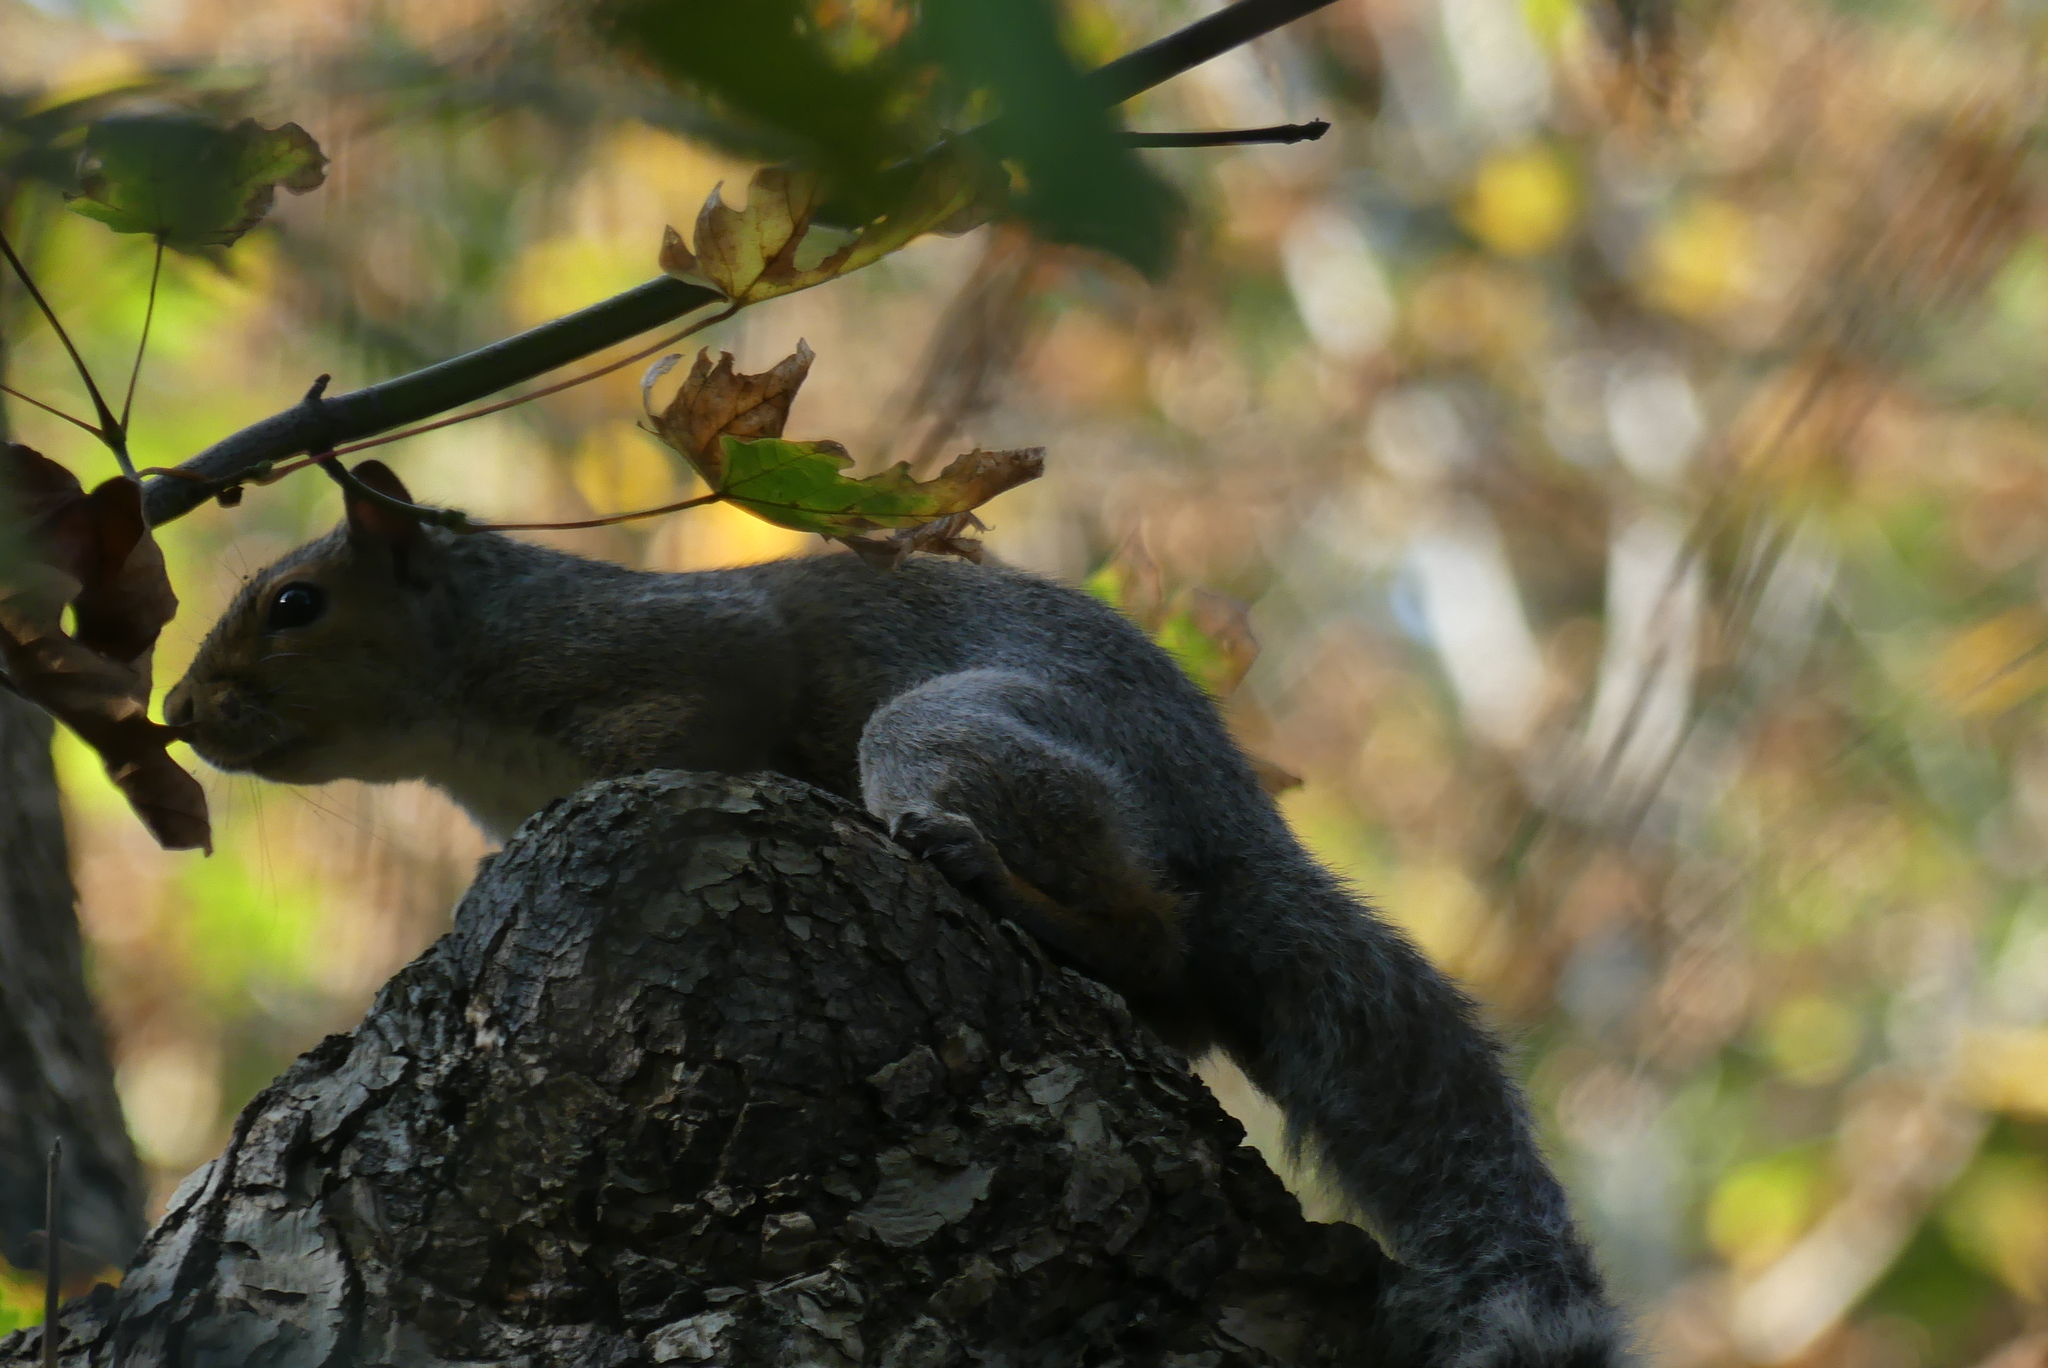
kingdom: Animalia
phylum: Chordata
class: Mammalia
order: Rodentia
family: Sciuridae
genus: Sciurus
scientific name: Sciurus carolinensis
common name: Eastern gray squirrel
